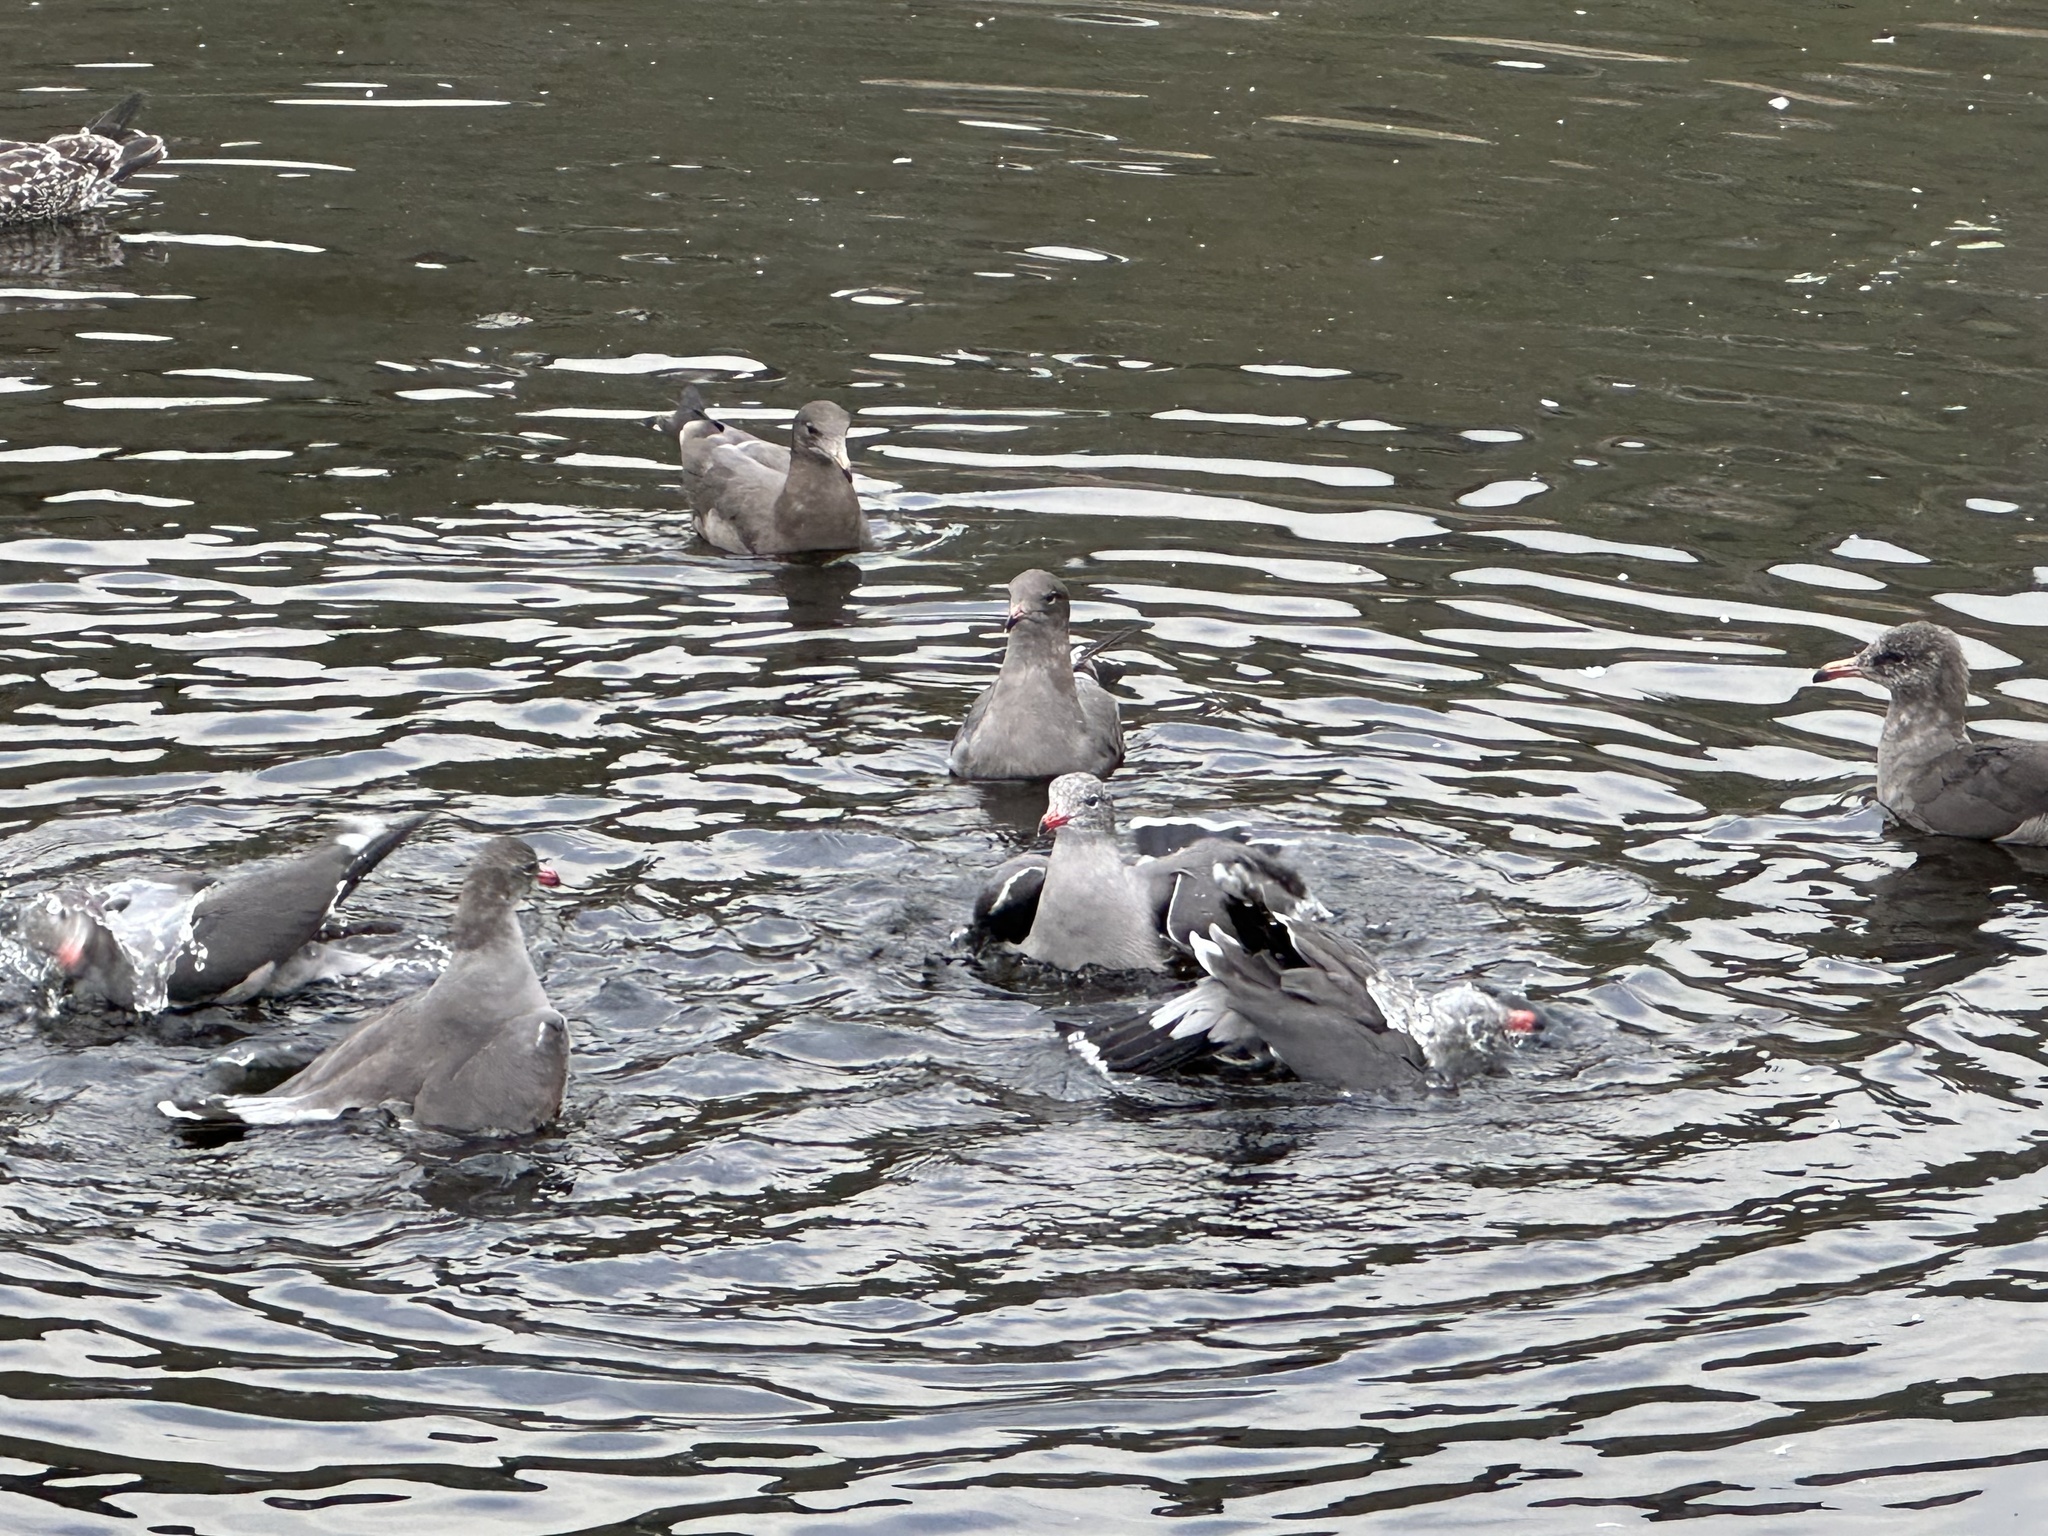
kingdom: Animalia
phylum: Chordata
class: Aves
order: Charadriiformes
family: Laridae
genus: Larus
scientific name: Larus heermanni
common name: Heermann's gull
